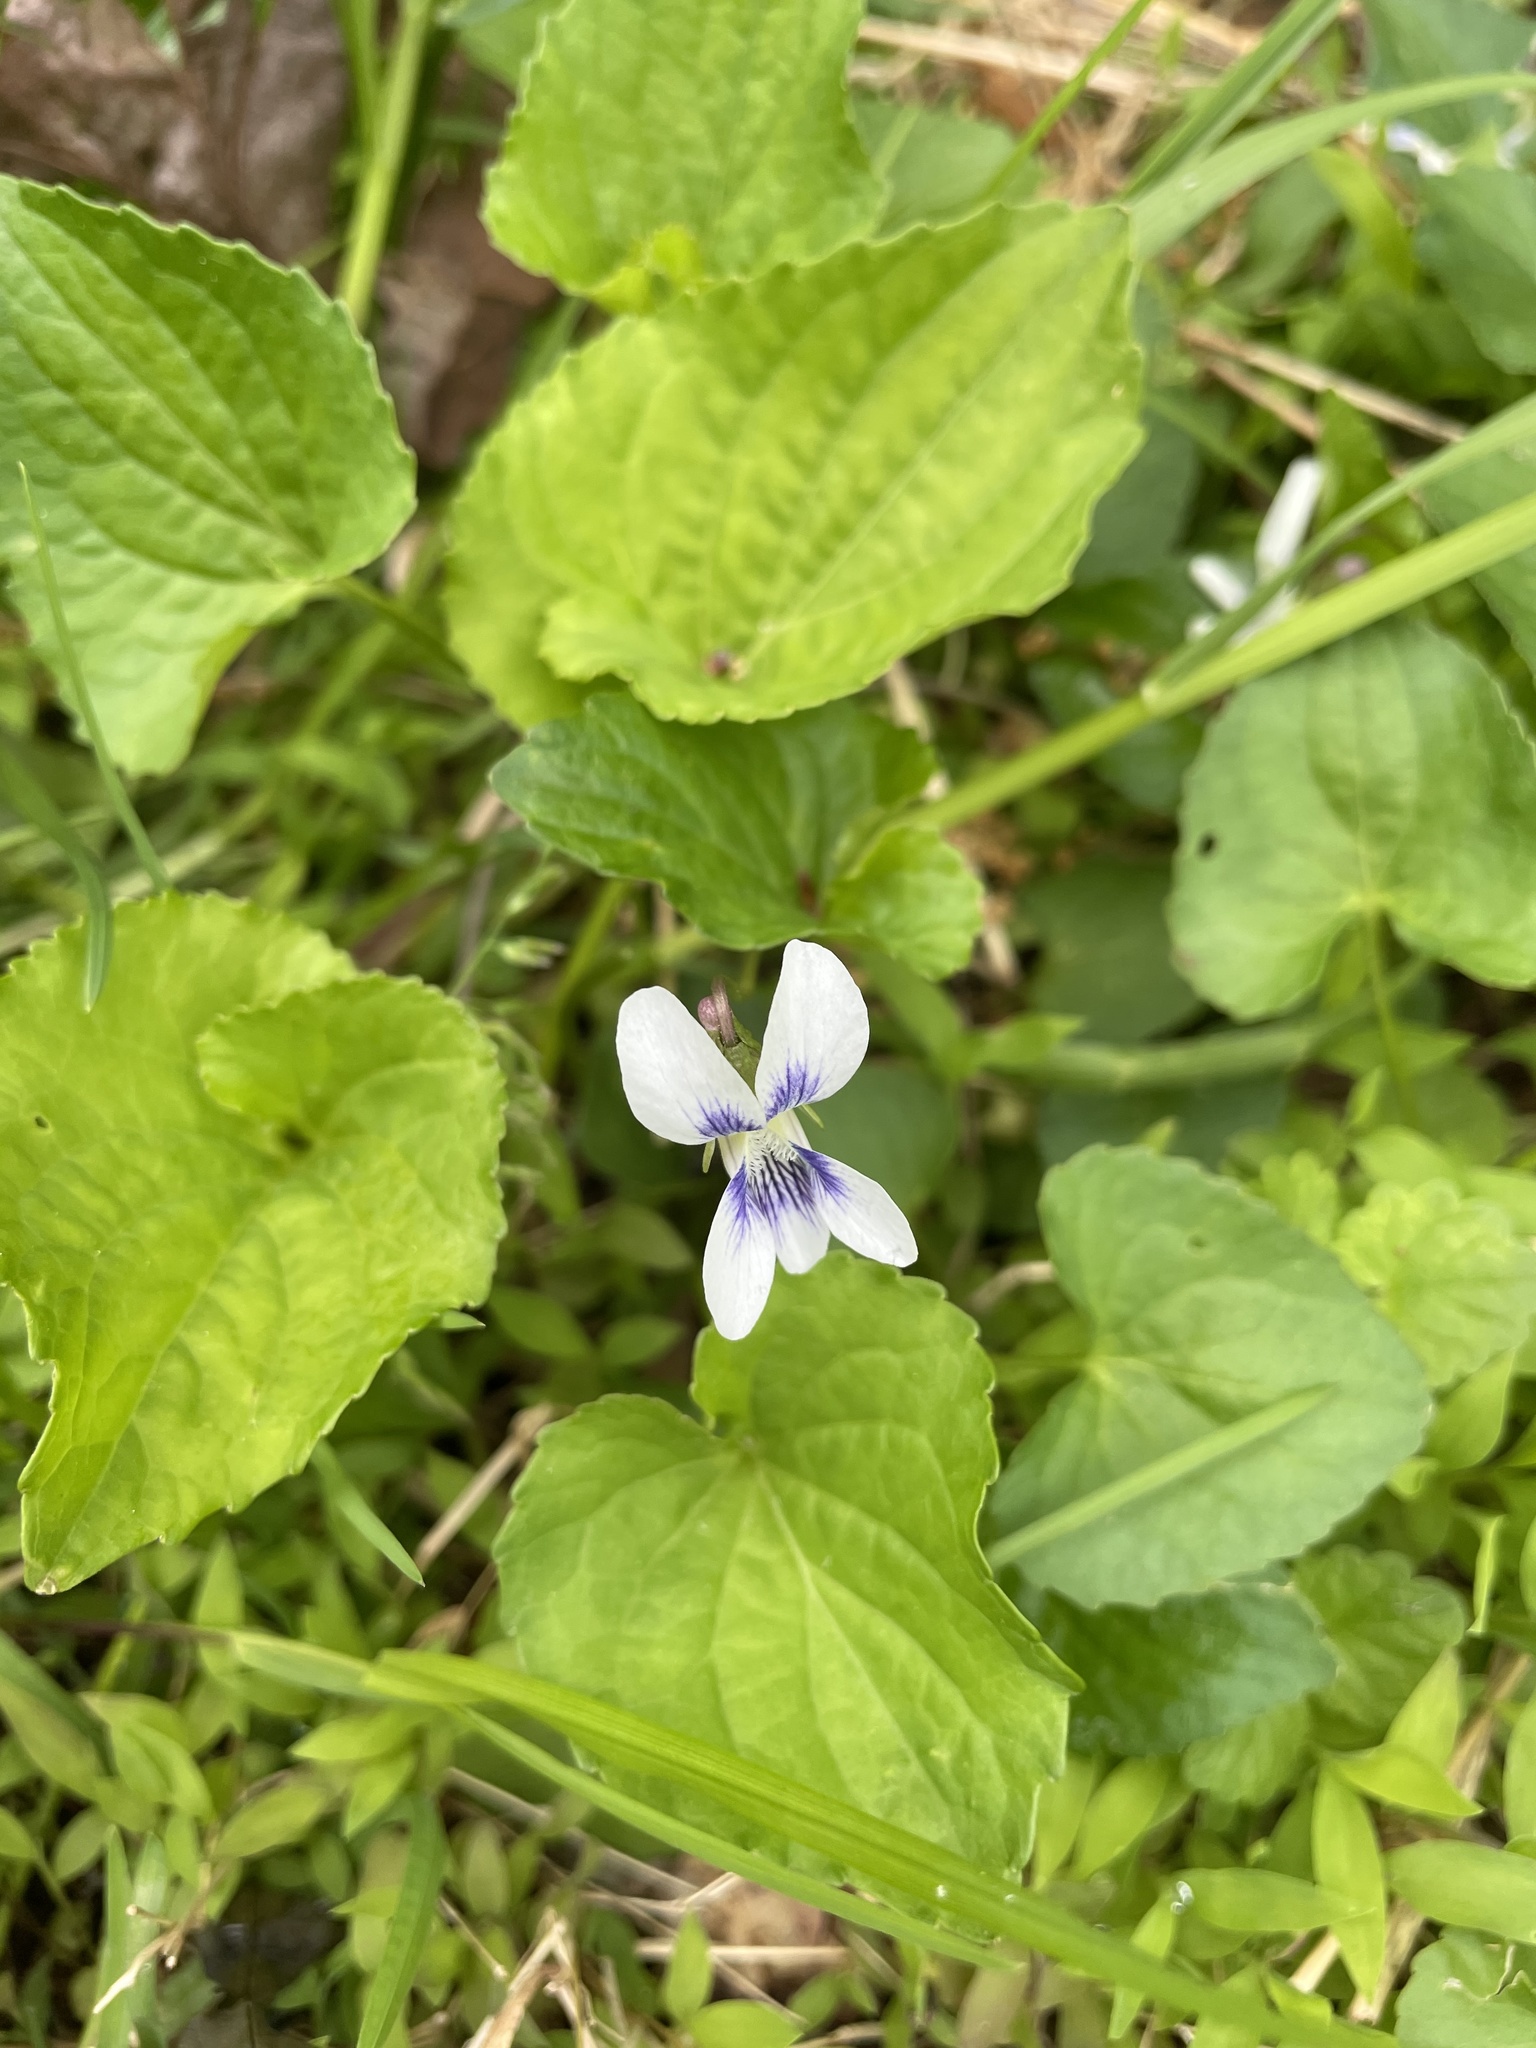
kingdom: Plantae
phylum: Tracheophyta
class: Magnoliopsida
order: Malpighiales
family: Violaceae
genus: Viola
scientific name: Viola sororia
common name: Dooryard violet
